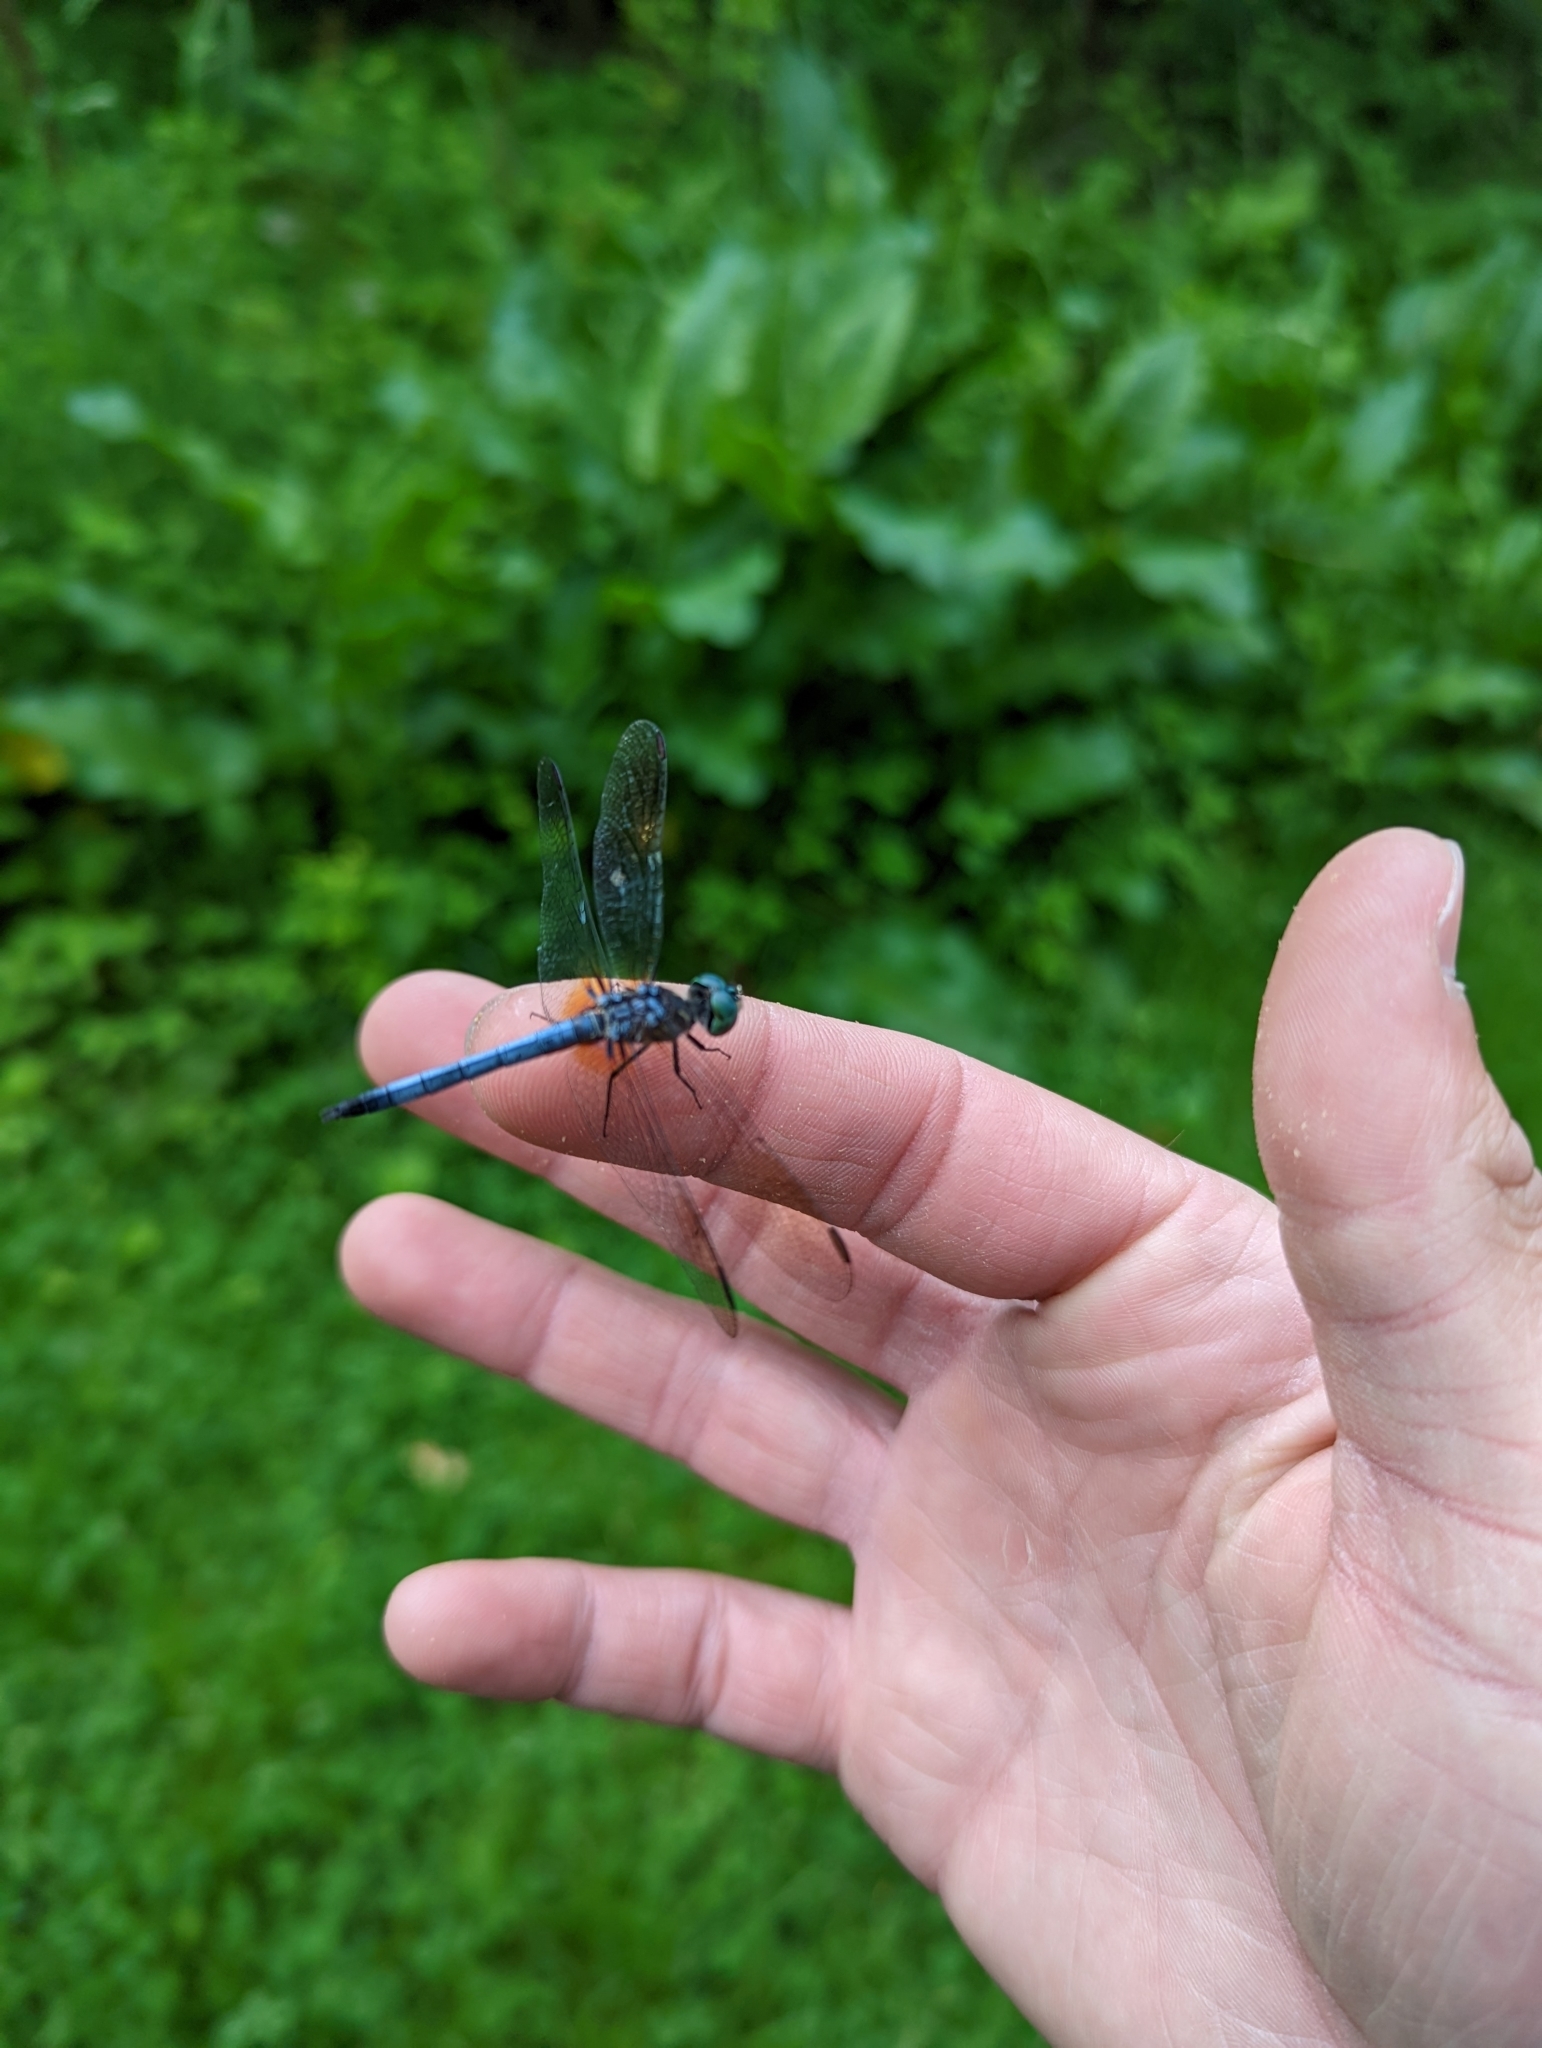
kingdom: Animalia
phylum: Arthropoda
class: Insecta
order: Odonata
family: Libellulidae
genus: Pachydiplax
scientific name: Pachydiplax longipennis
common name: Blue dasher
